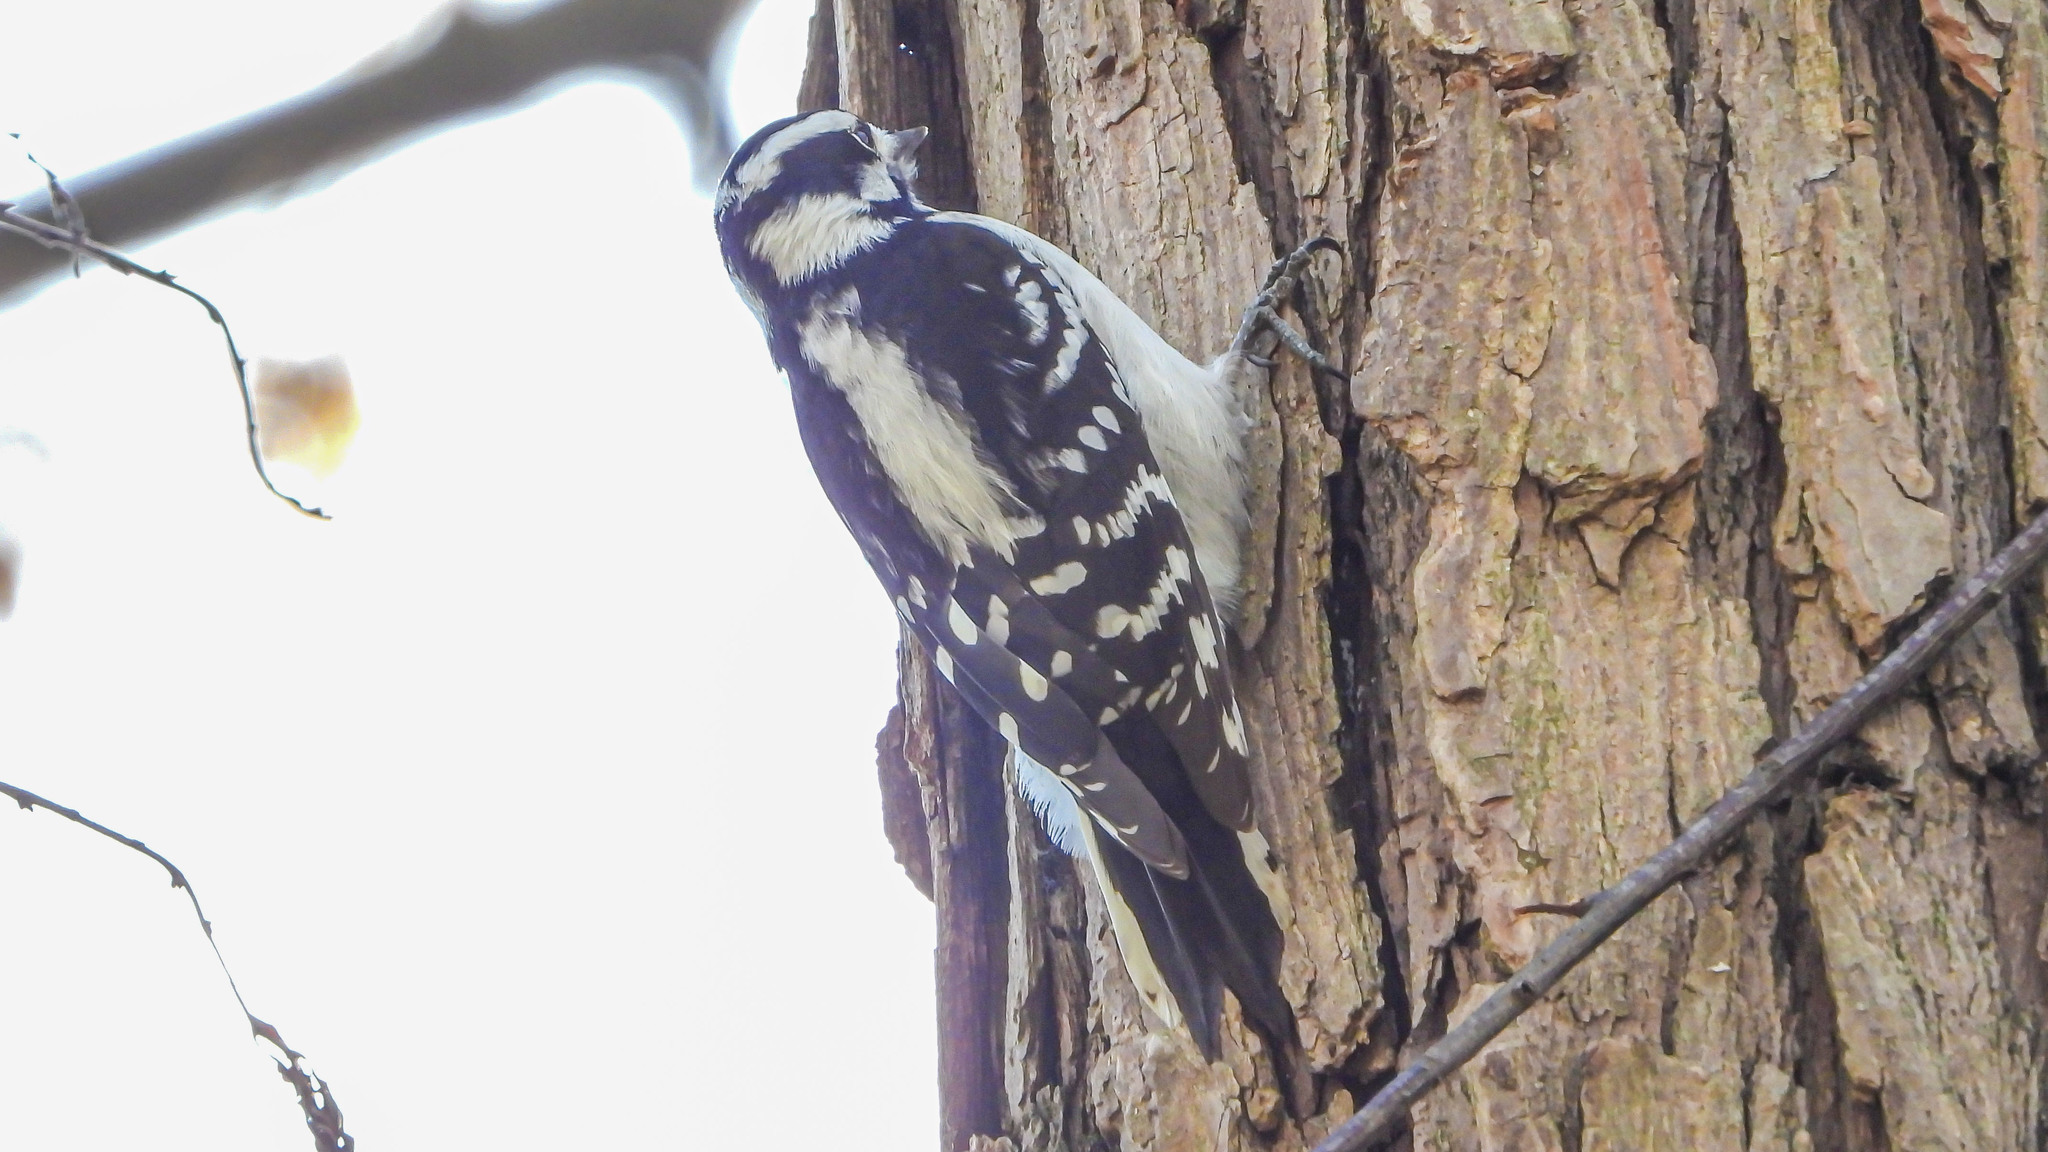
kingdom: Animalia
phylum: Chordata
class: Aves
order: Piciformes
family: Picidae
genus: Dryobates
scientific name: Dryobates pubescens
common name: Downy woodpecker
